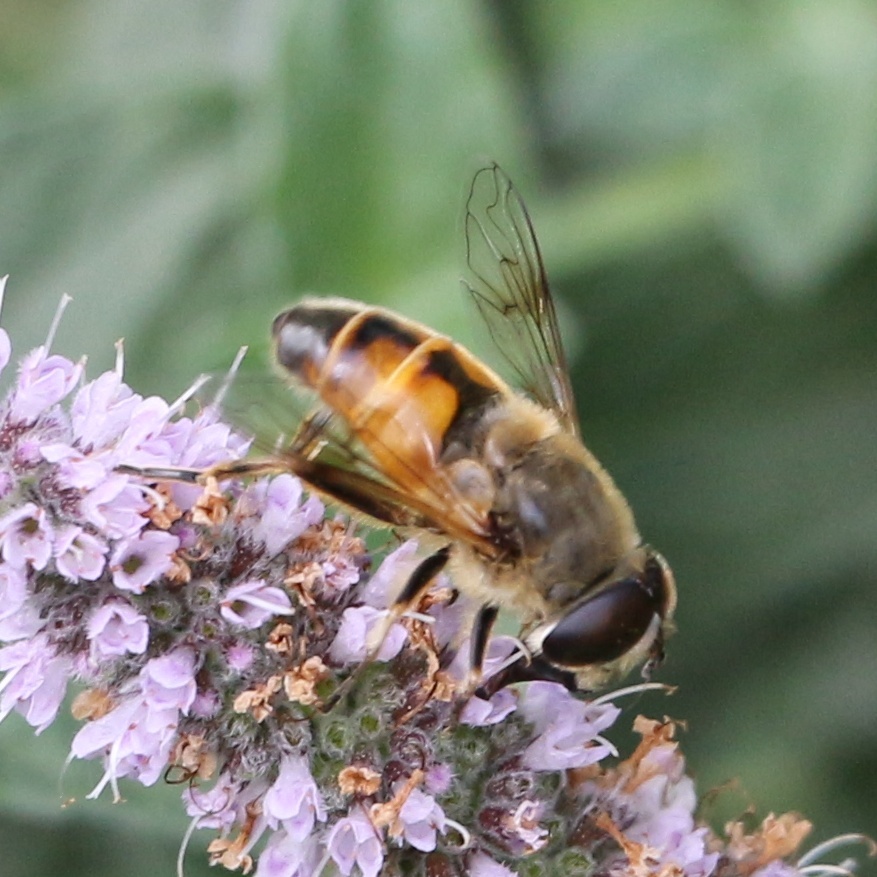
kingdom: Animalia
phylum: Arthropoda
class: Insecta
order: Diptera
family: Syrphidae
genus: Eristalis
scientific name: Eristalis tenax
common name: Drone fly
